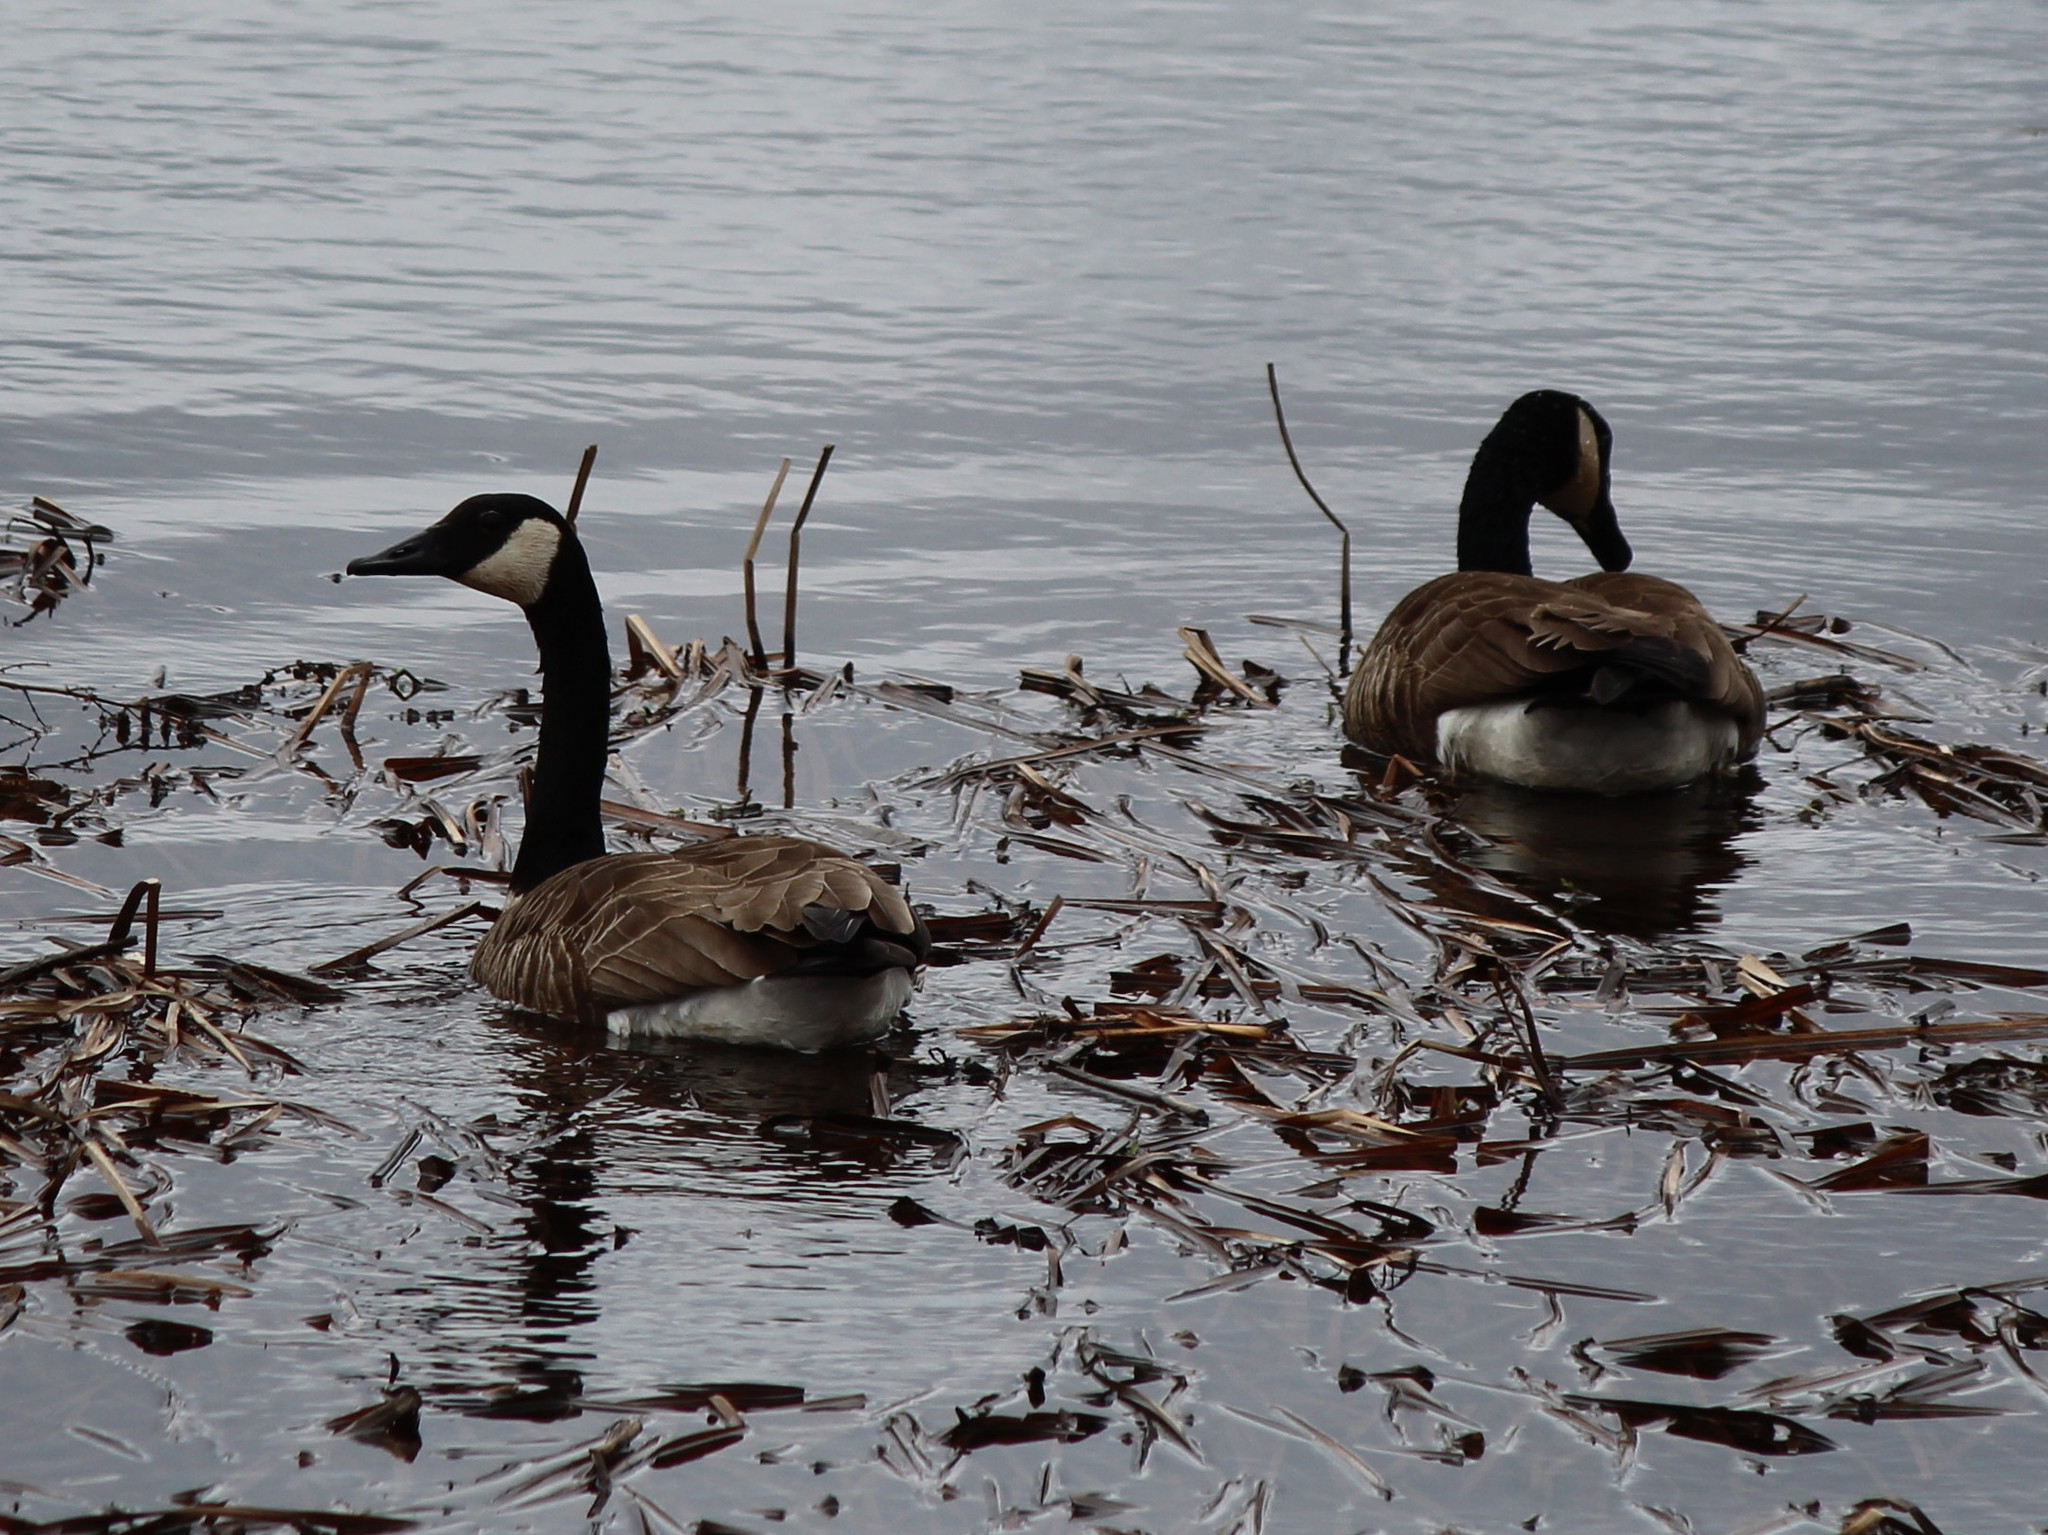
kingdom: Animalia
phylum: Chordata
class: Aves
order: Anseriformes
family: Anatidae
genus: Branta
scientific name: Branta canadensis
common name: Canada goose
